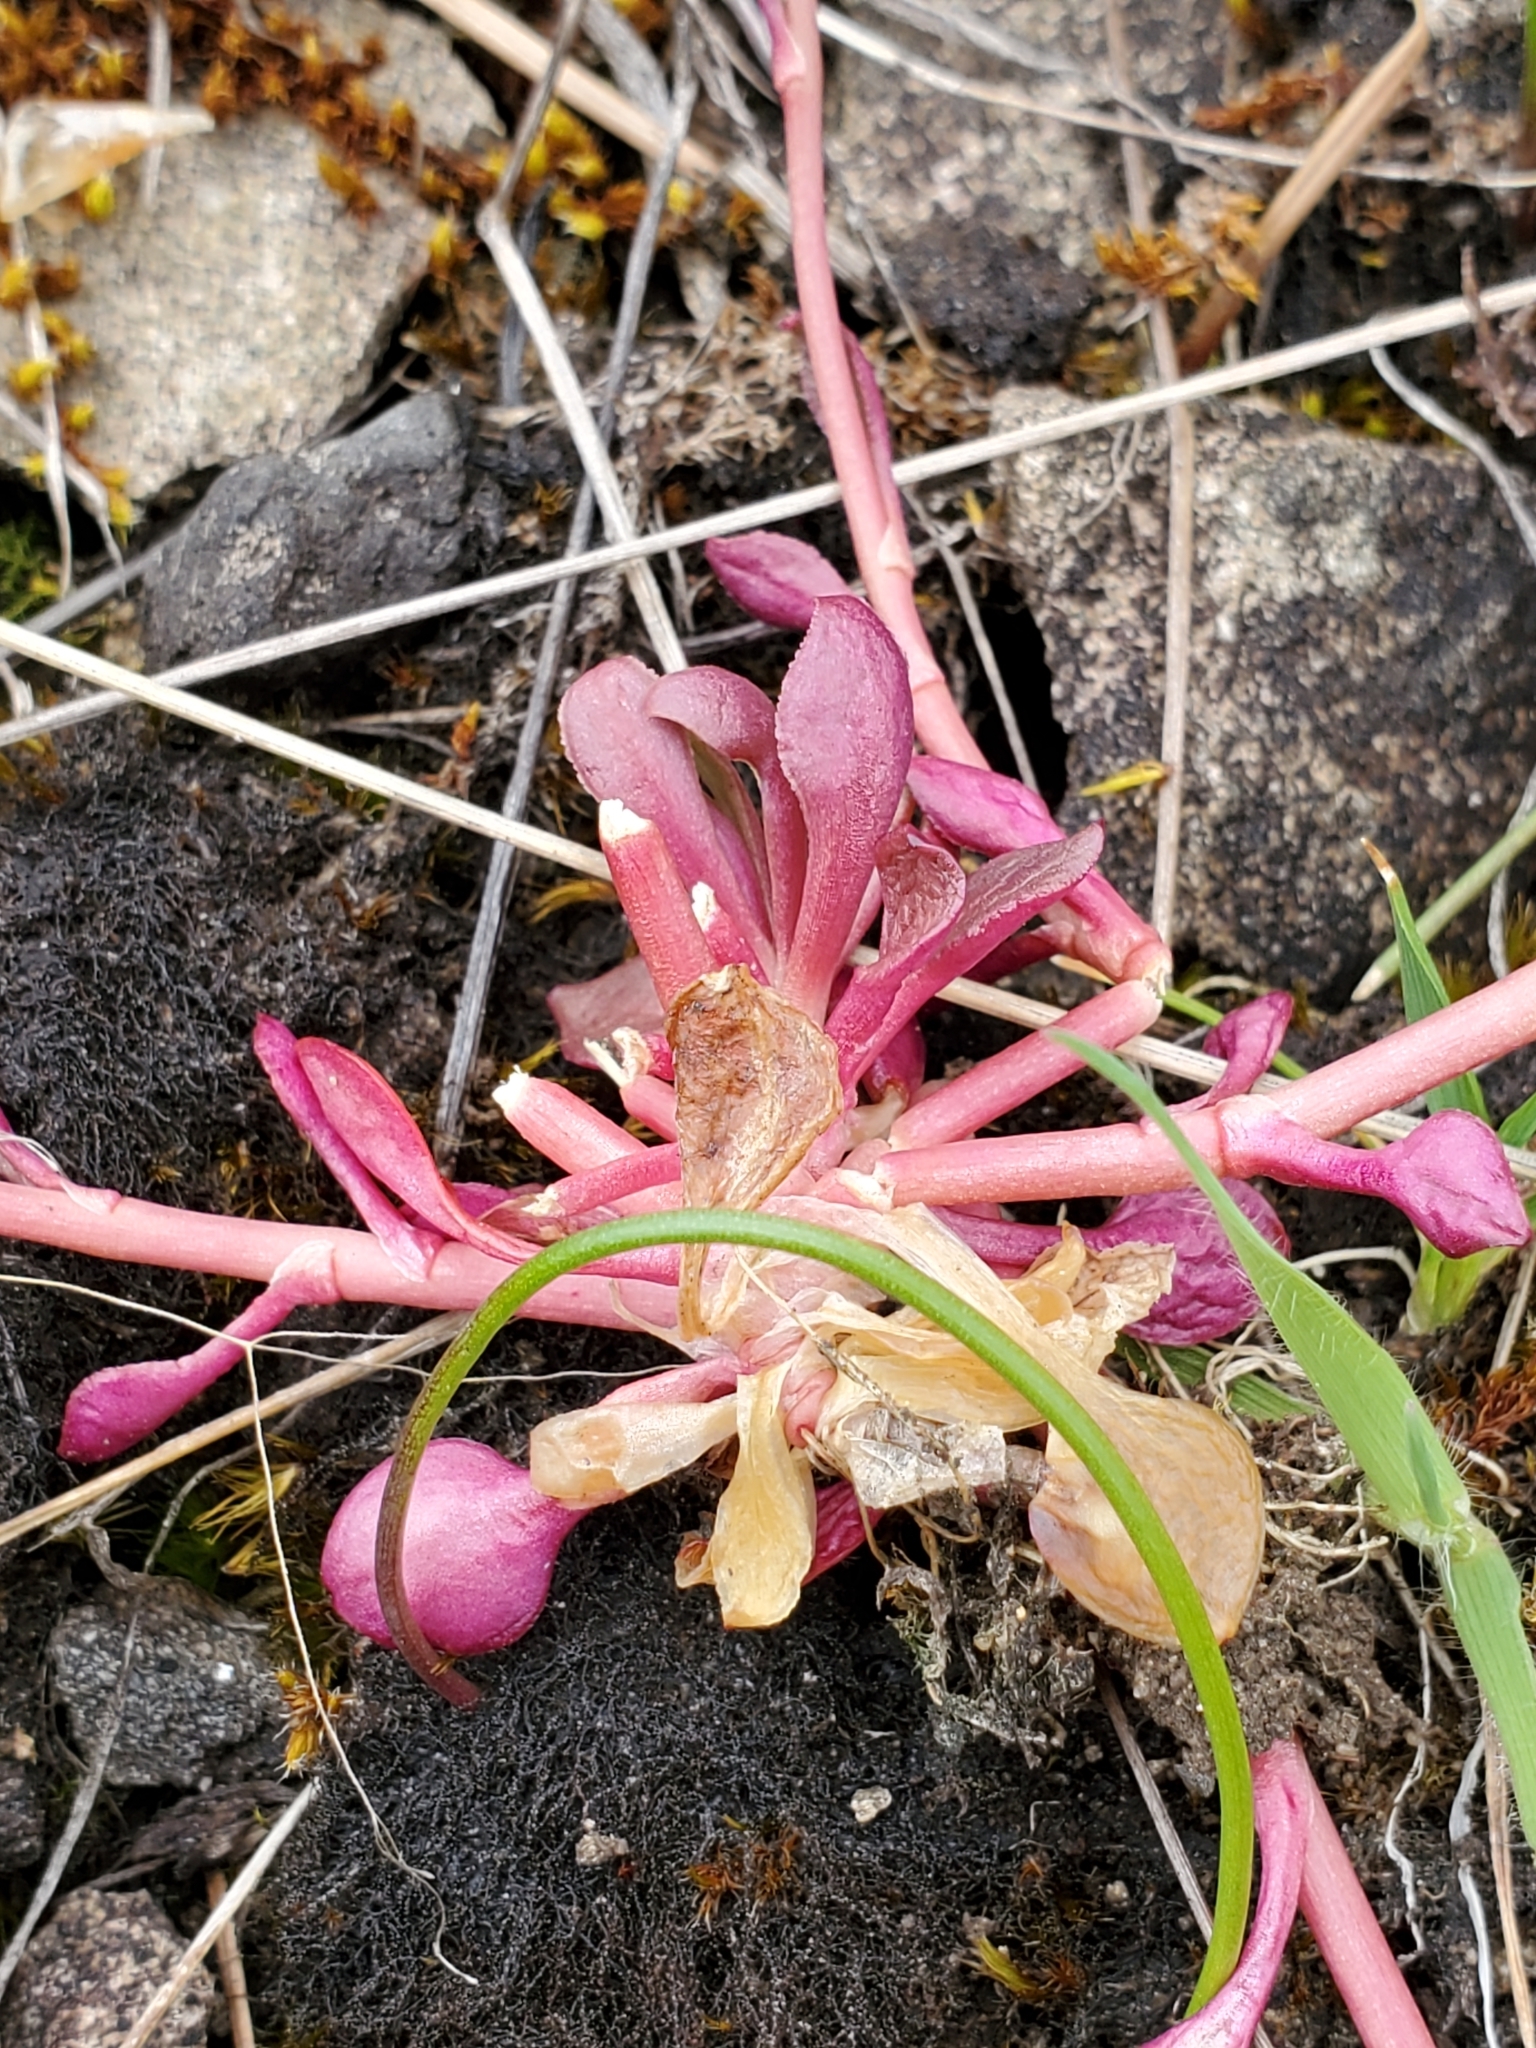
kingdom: Plantae
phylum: Tracheophyta
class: Magnoliopsida
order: Caryophyllales
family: Montiaceae
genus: Montia
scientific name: Montia parvifolia
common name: Small-leaved blinks
